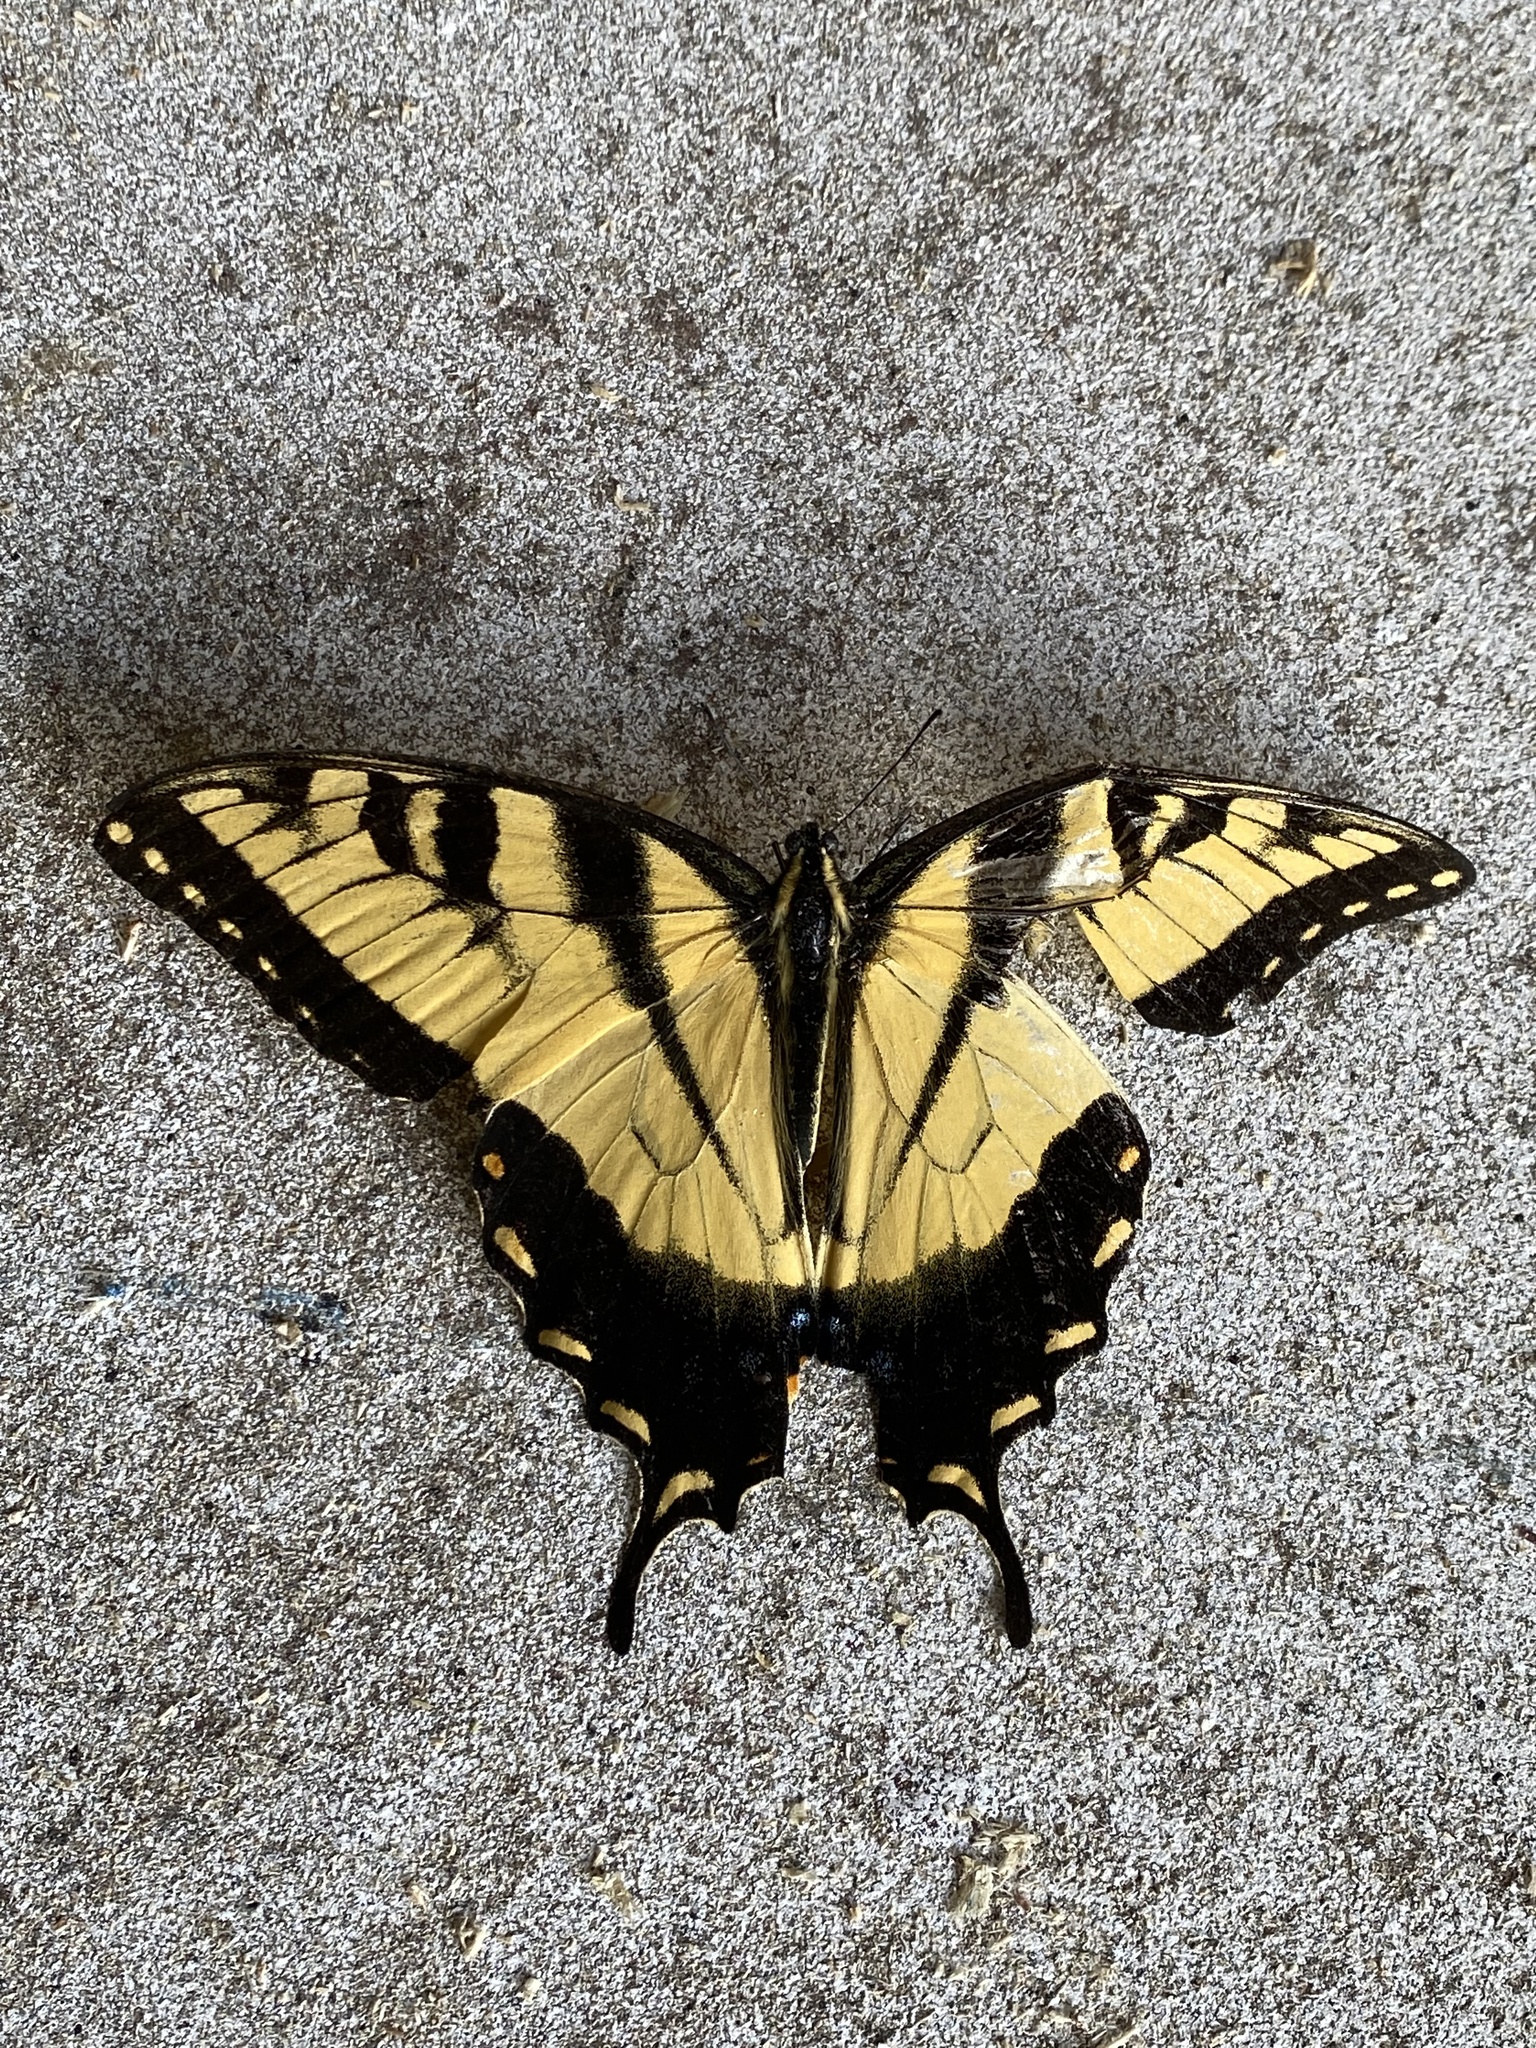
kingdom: Animalia
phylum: Arthropoda
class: Insecta
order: Lepidoptera
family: Papilionidae
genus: Papilio
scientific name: Papilio glaucus
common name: Tiger swallowtail
